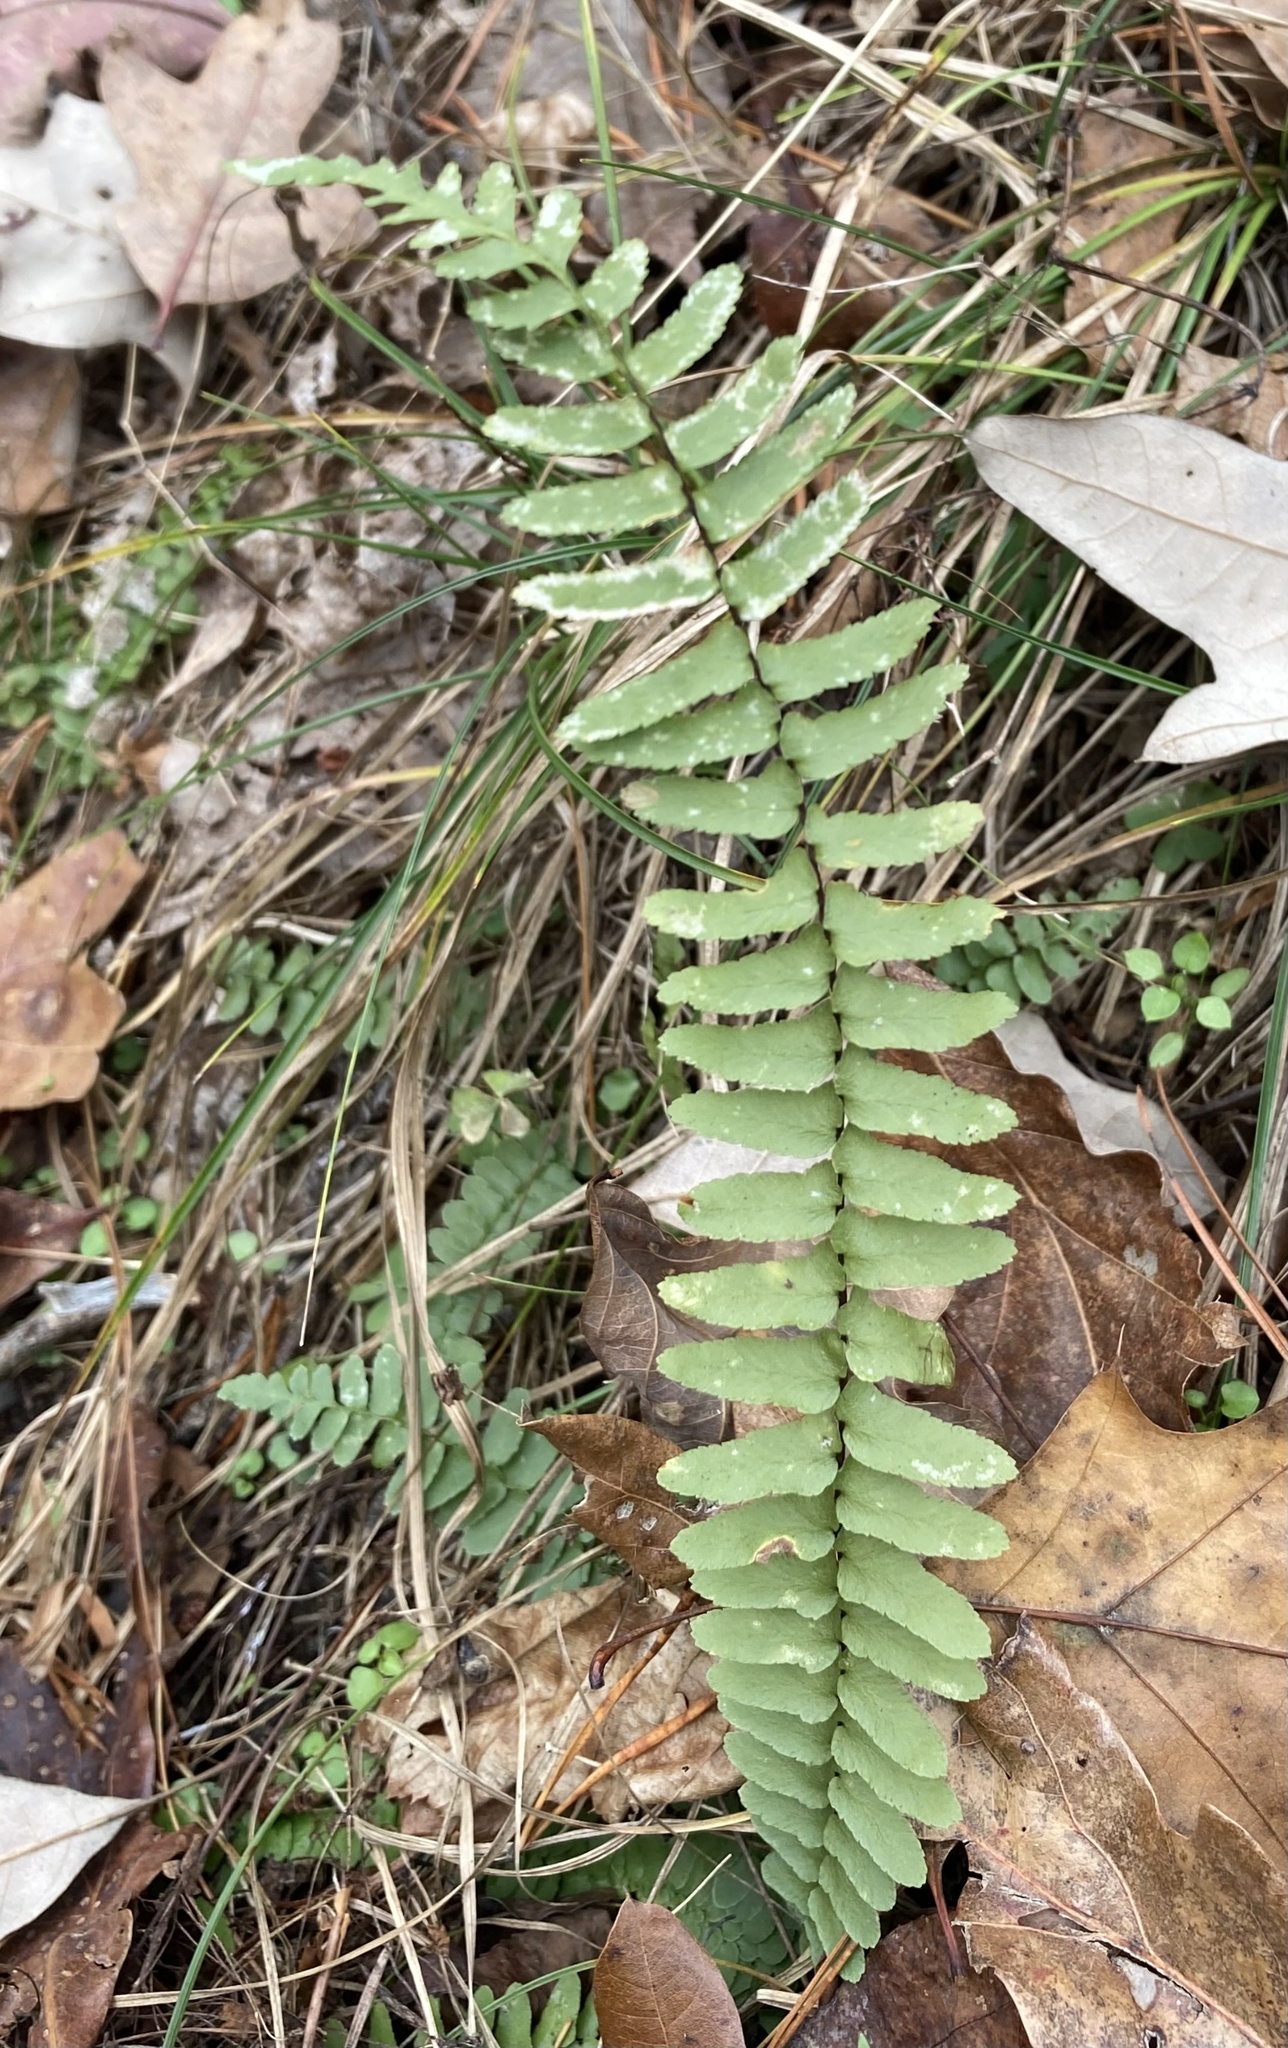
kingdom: Plantae
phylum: Tracheophyta
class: Polypodiopsida
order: Polypodiales
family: Aspleniaceae
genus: Asplenium
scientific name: Asplenium platyneuron
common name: Ebony spleenwort
